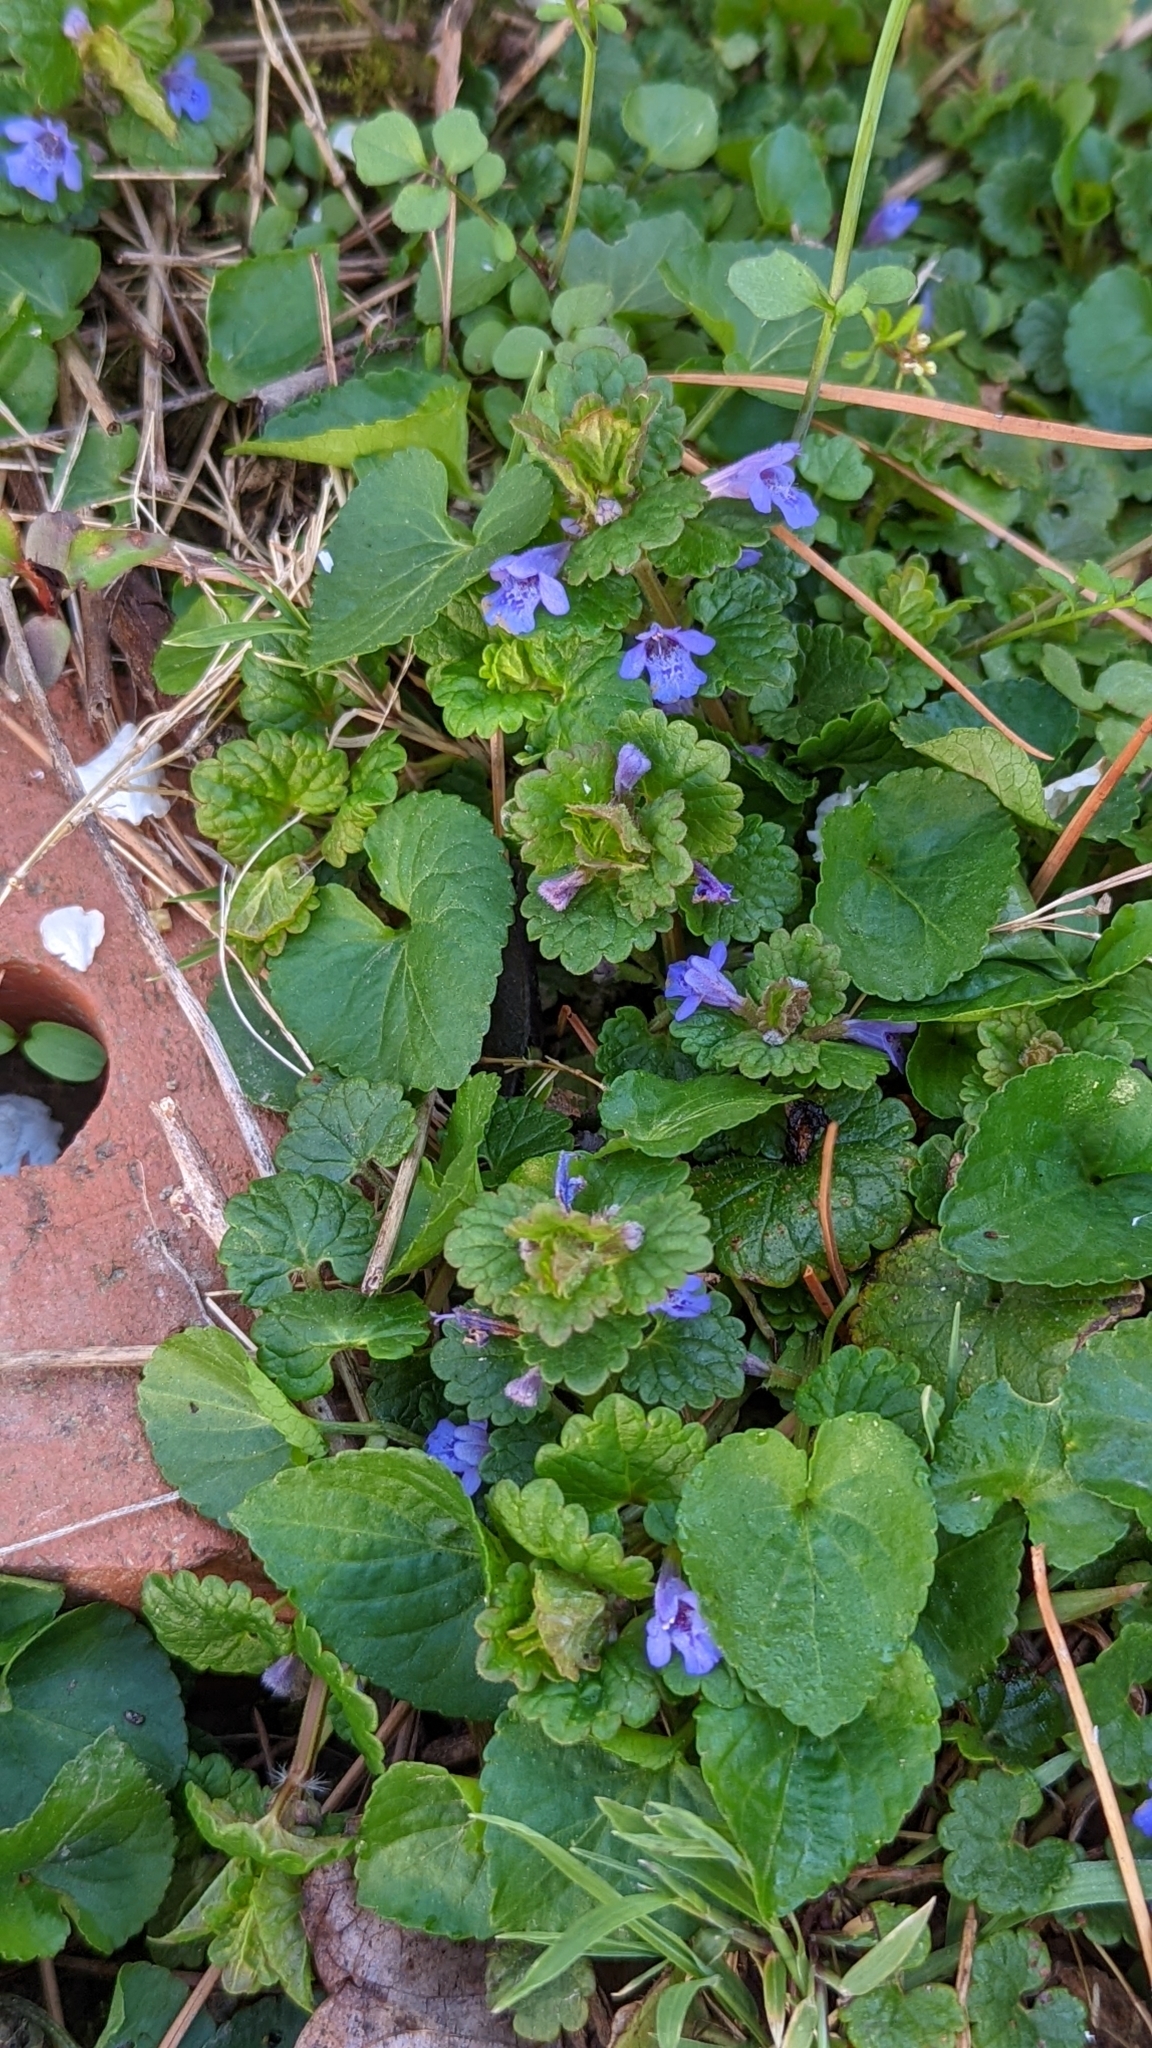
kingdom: Plantae
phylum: Tracheophyta
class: Magnoliopsida
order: Lamiales
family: Lamiaceae
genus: Glechoma
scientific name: Glechoma hederacea
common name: Ground ivy
